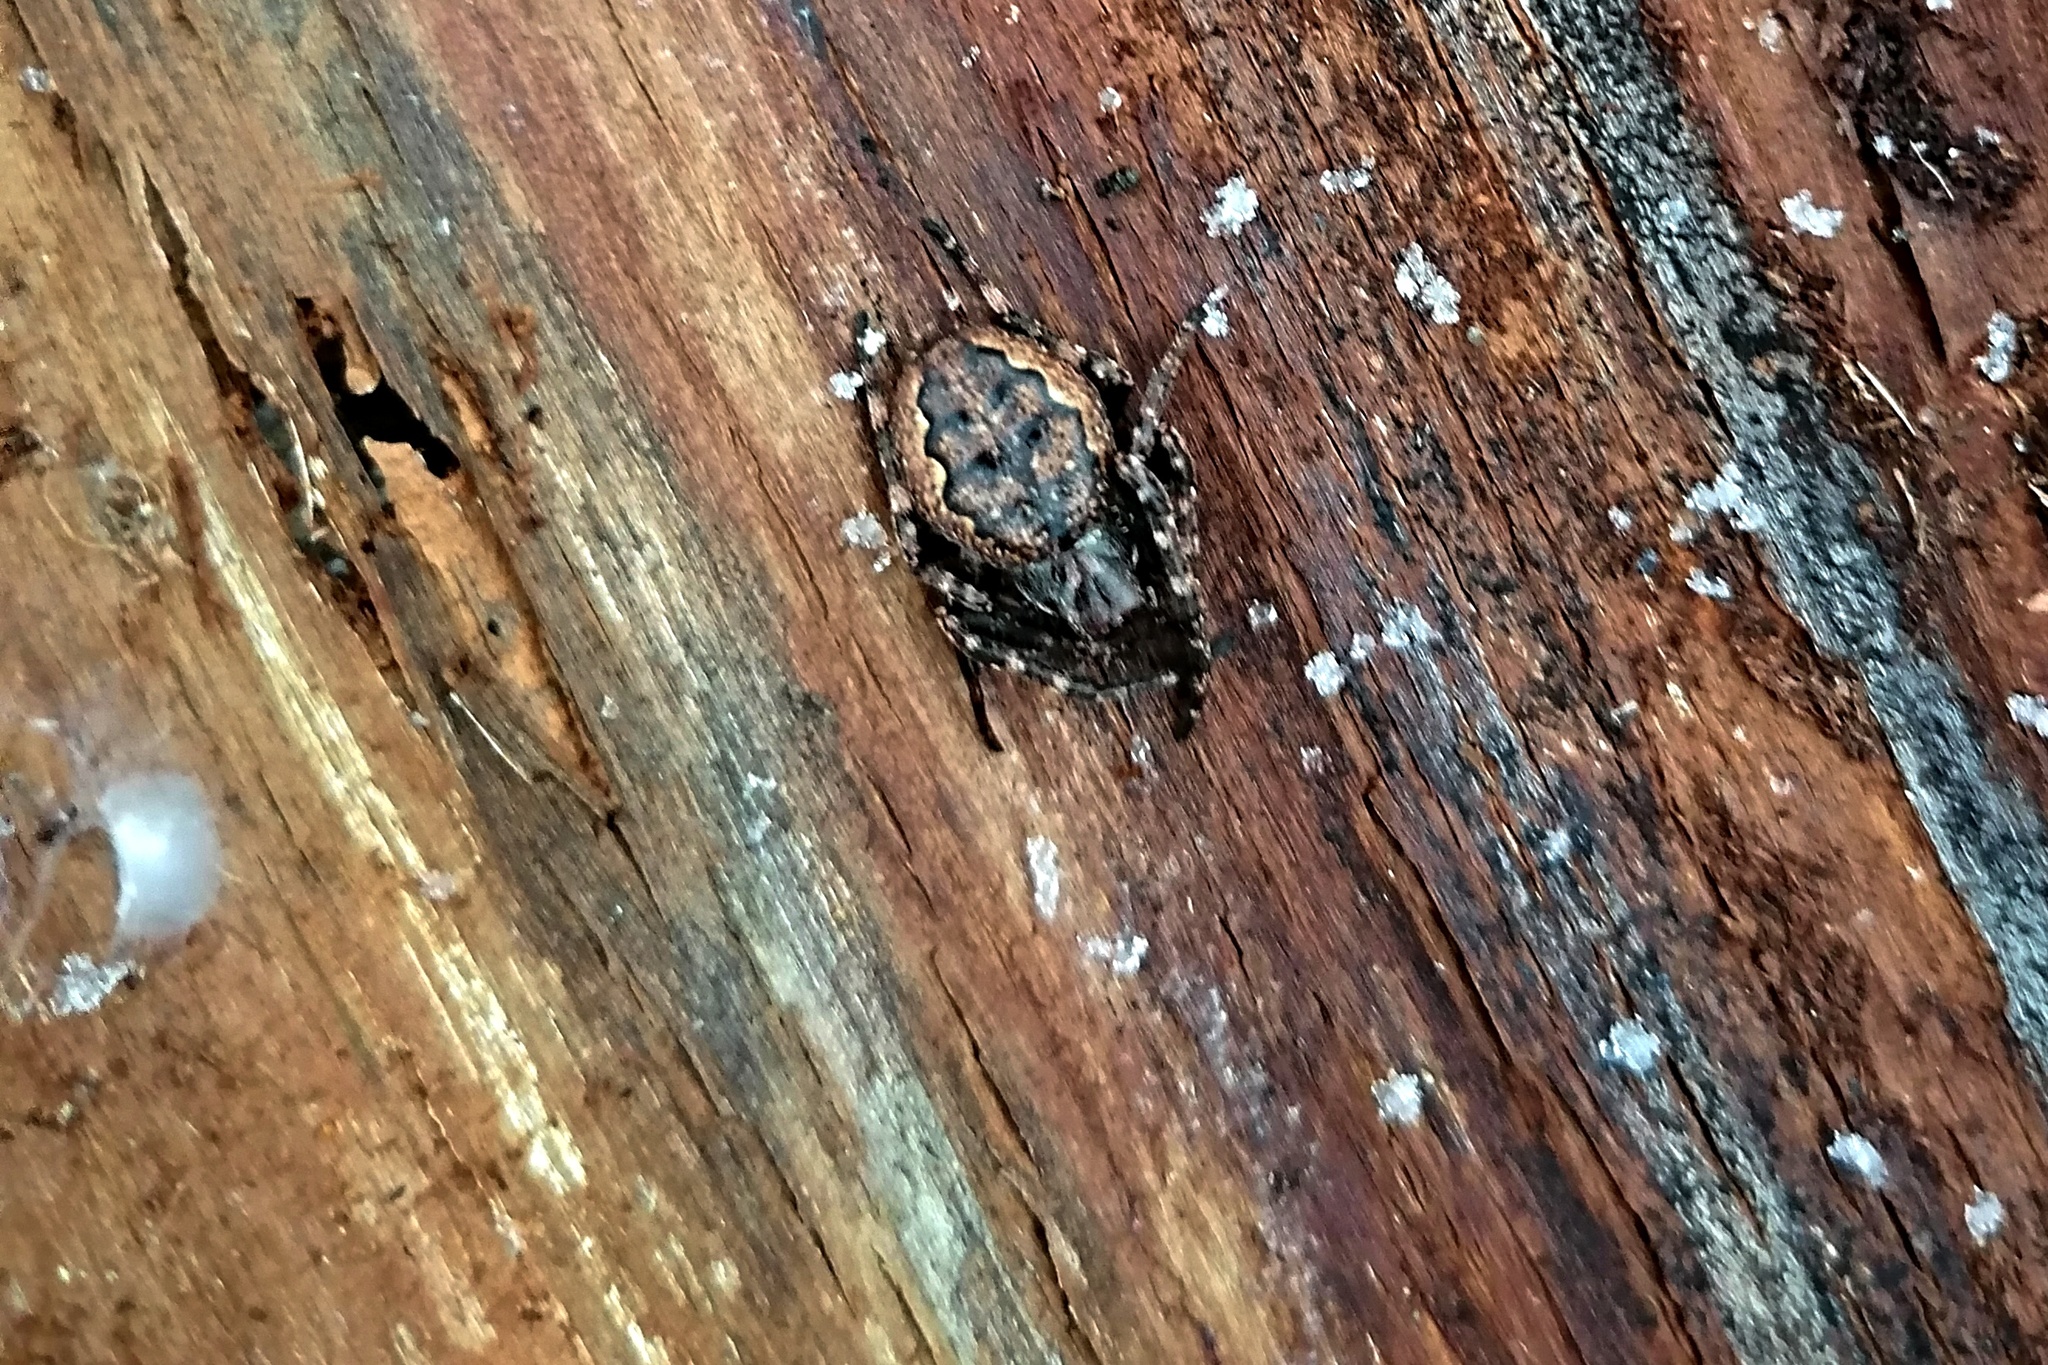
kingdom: Animalia
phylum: Arthropoda
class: Arachnida
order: Araneae
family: Araneidae
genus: Nuctenea
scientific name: Nuctenea umbratica
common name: Toad spider
